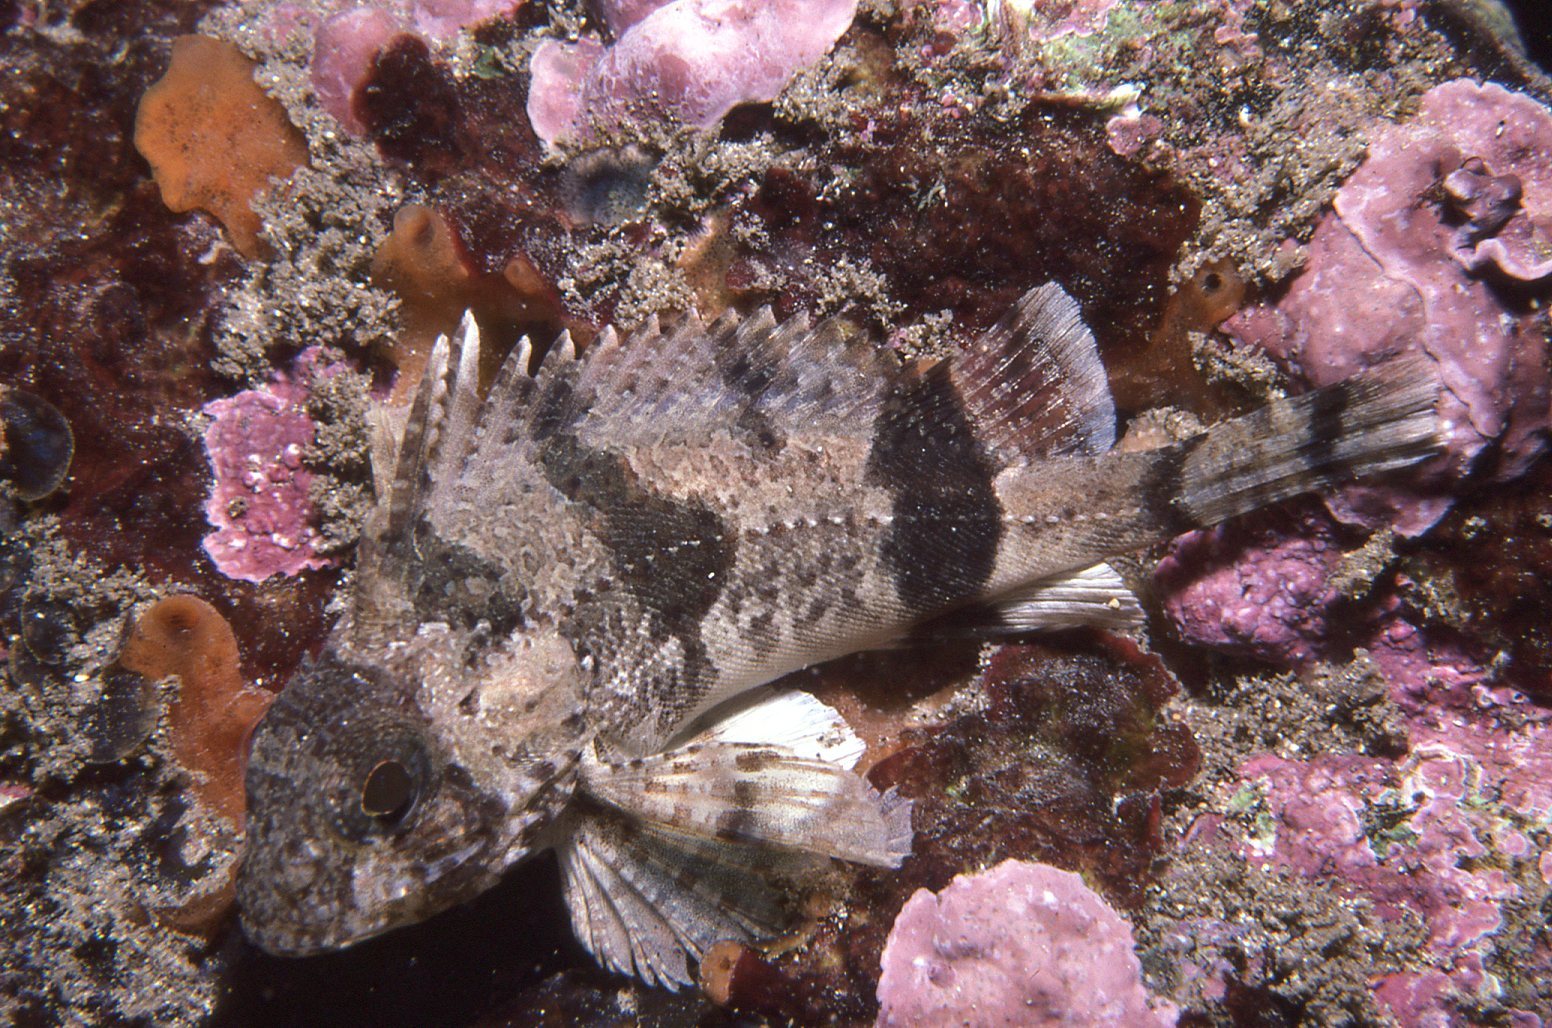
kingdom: Animalia
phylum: Chordata
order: Scorpaeniformes
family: Tetrarogidae
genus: Centropogon
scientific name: Centropogon australis
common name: Fortescue
